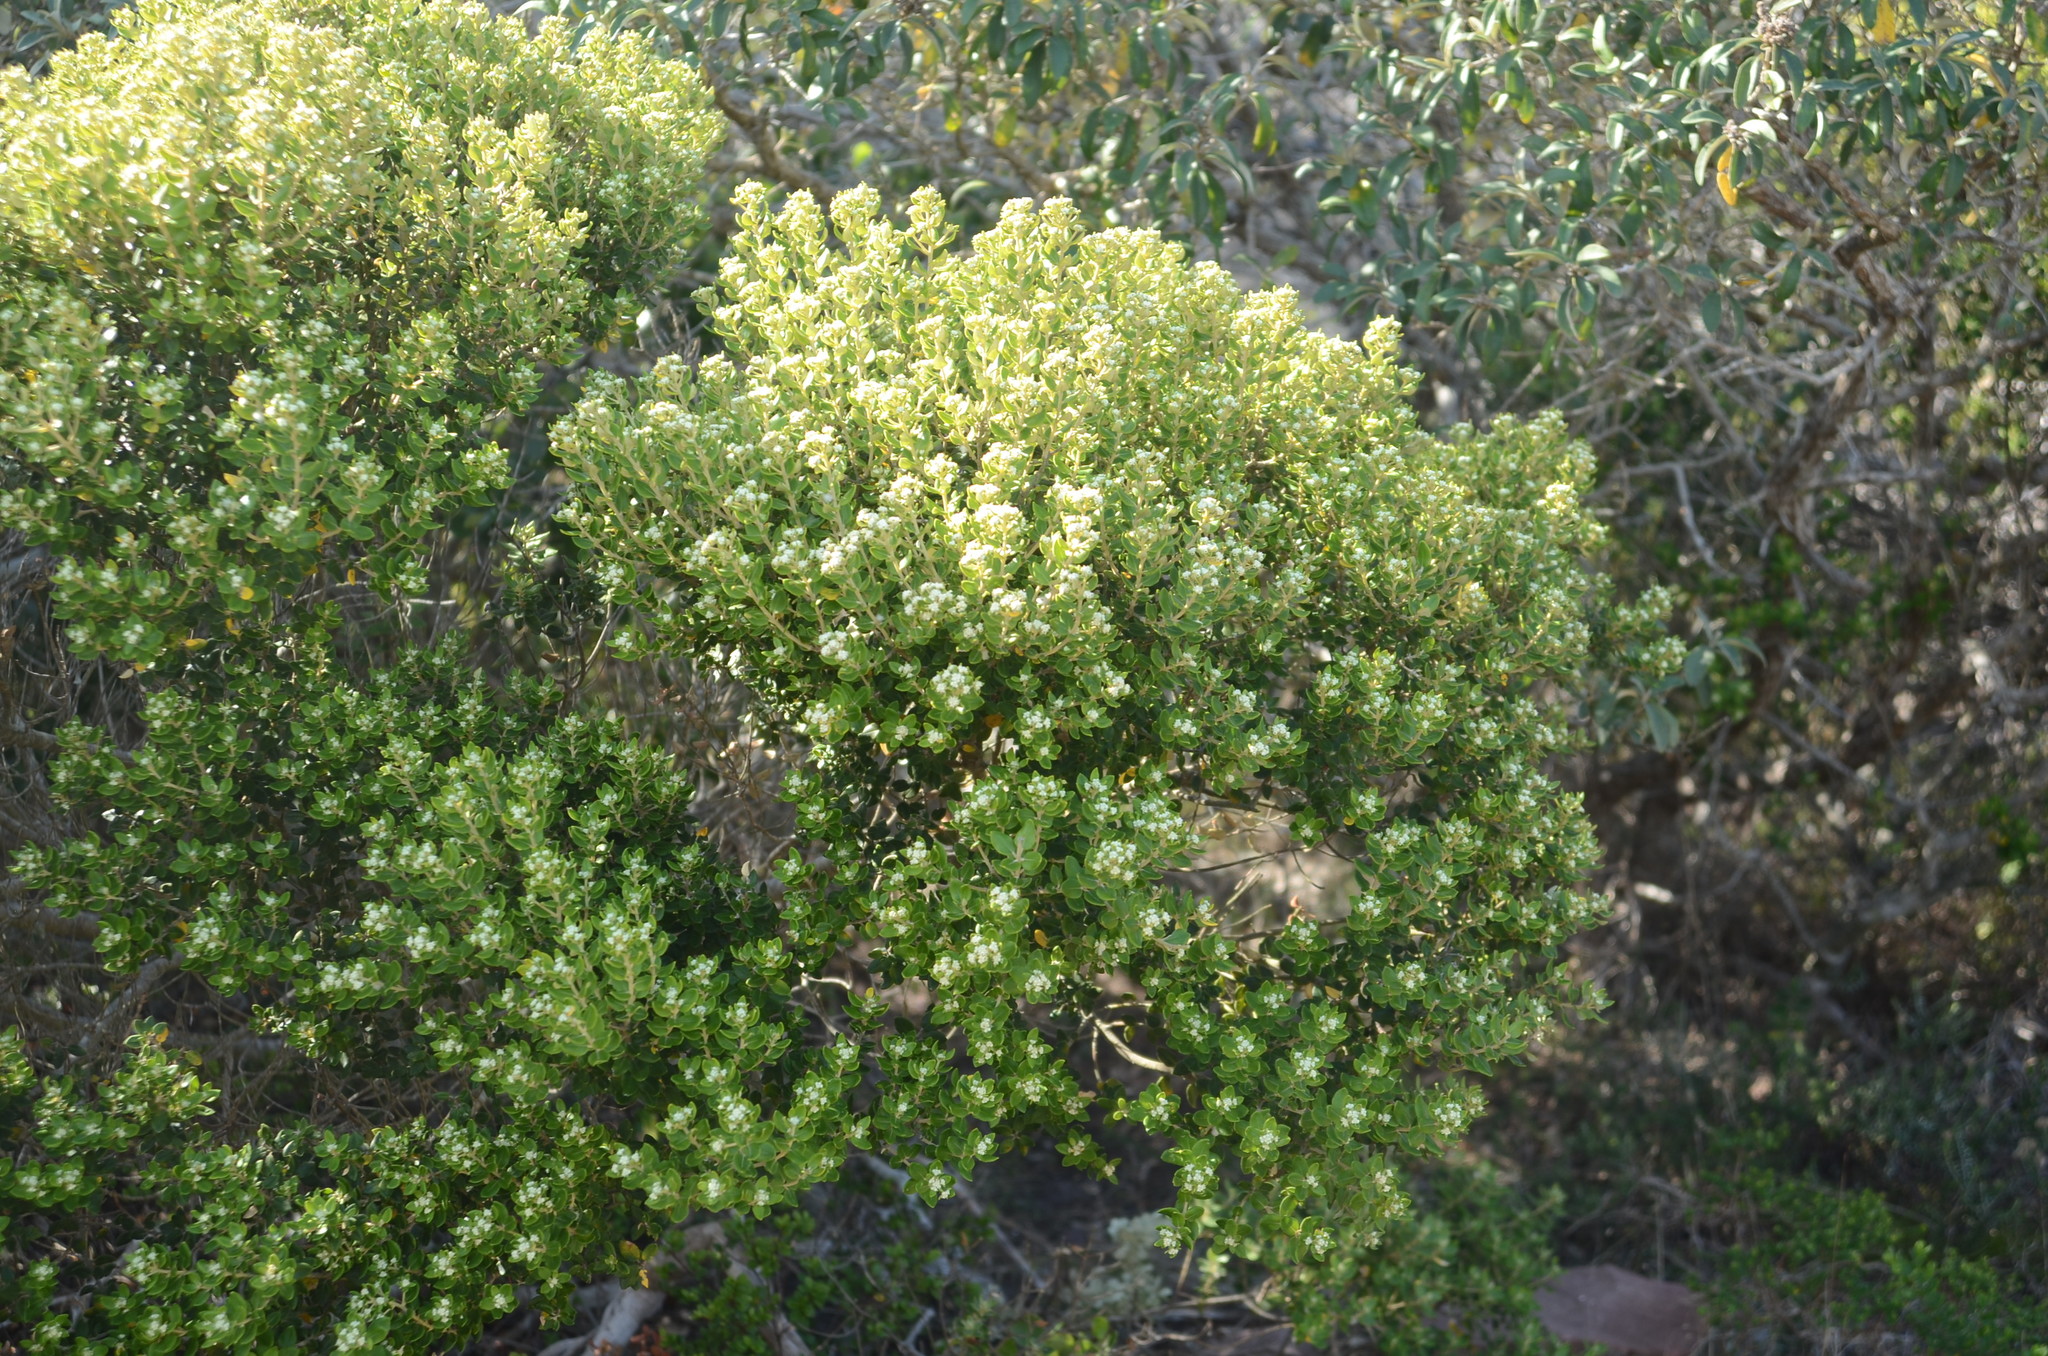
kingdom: Plantae
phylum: Tracheophyta
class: Magnoliopsida
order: Rosales
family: Rhamnaceae
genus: Phylica
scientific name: Phylica buxifolia
